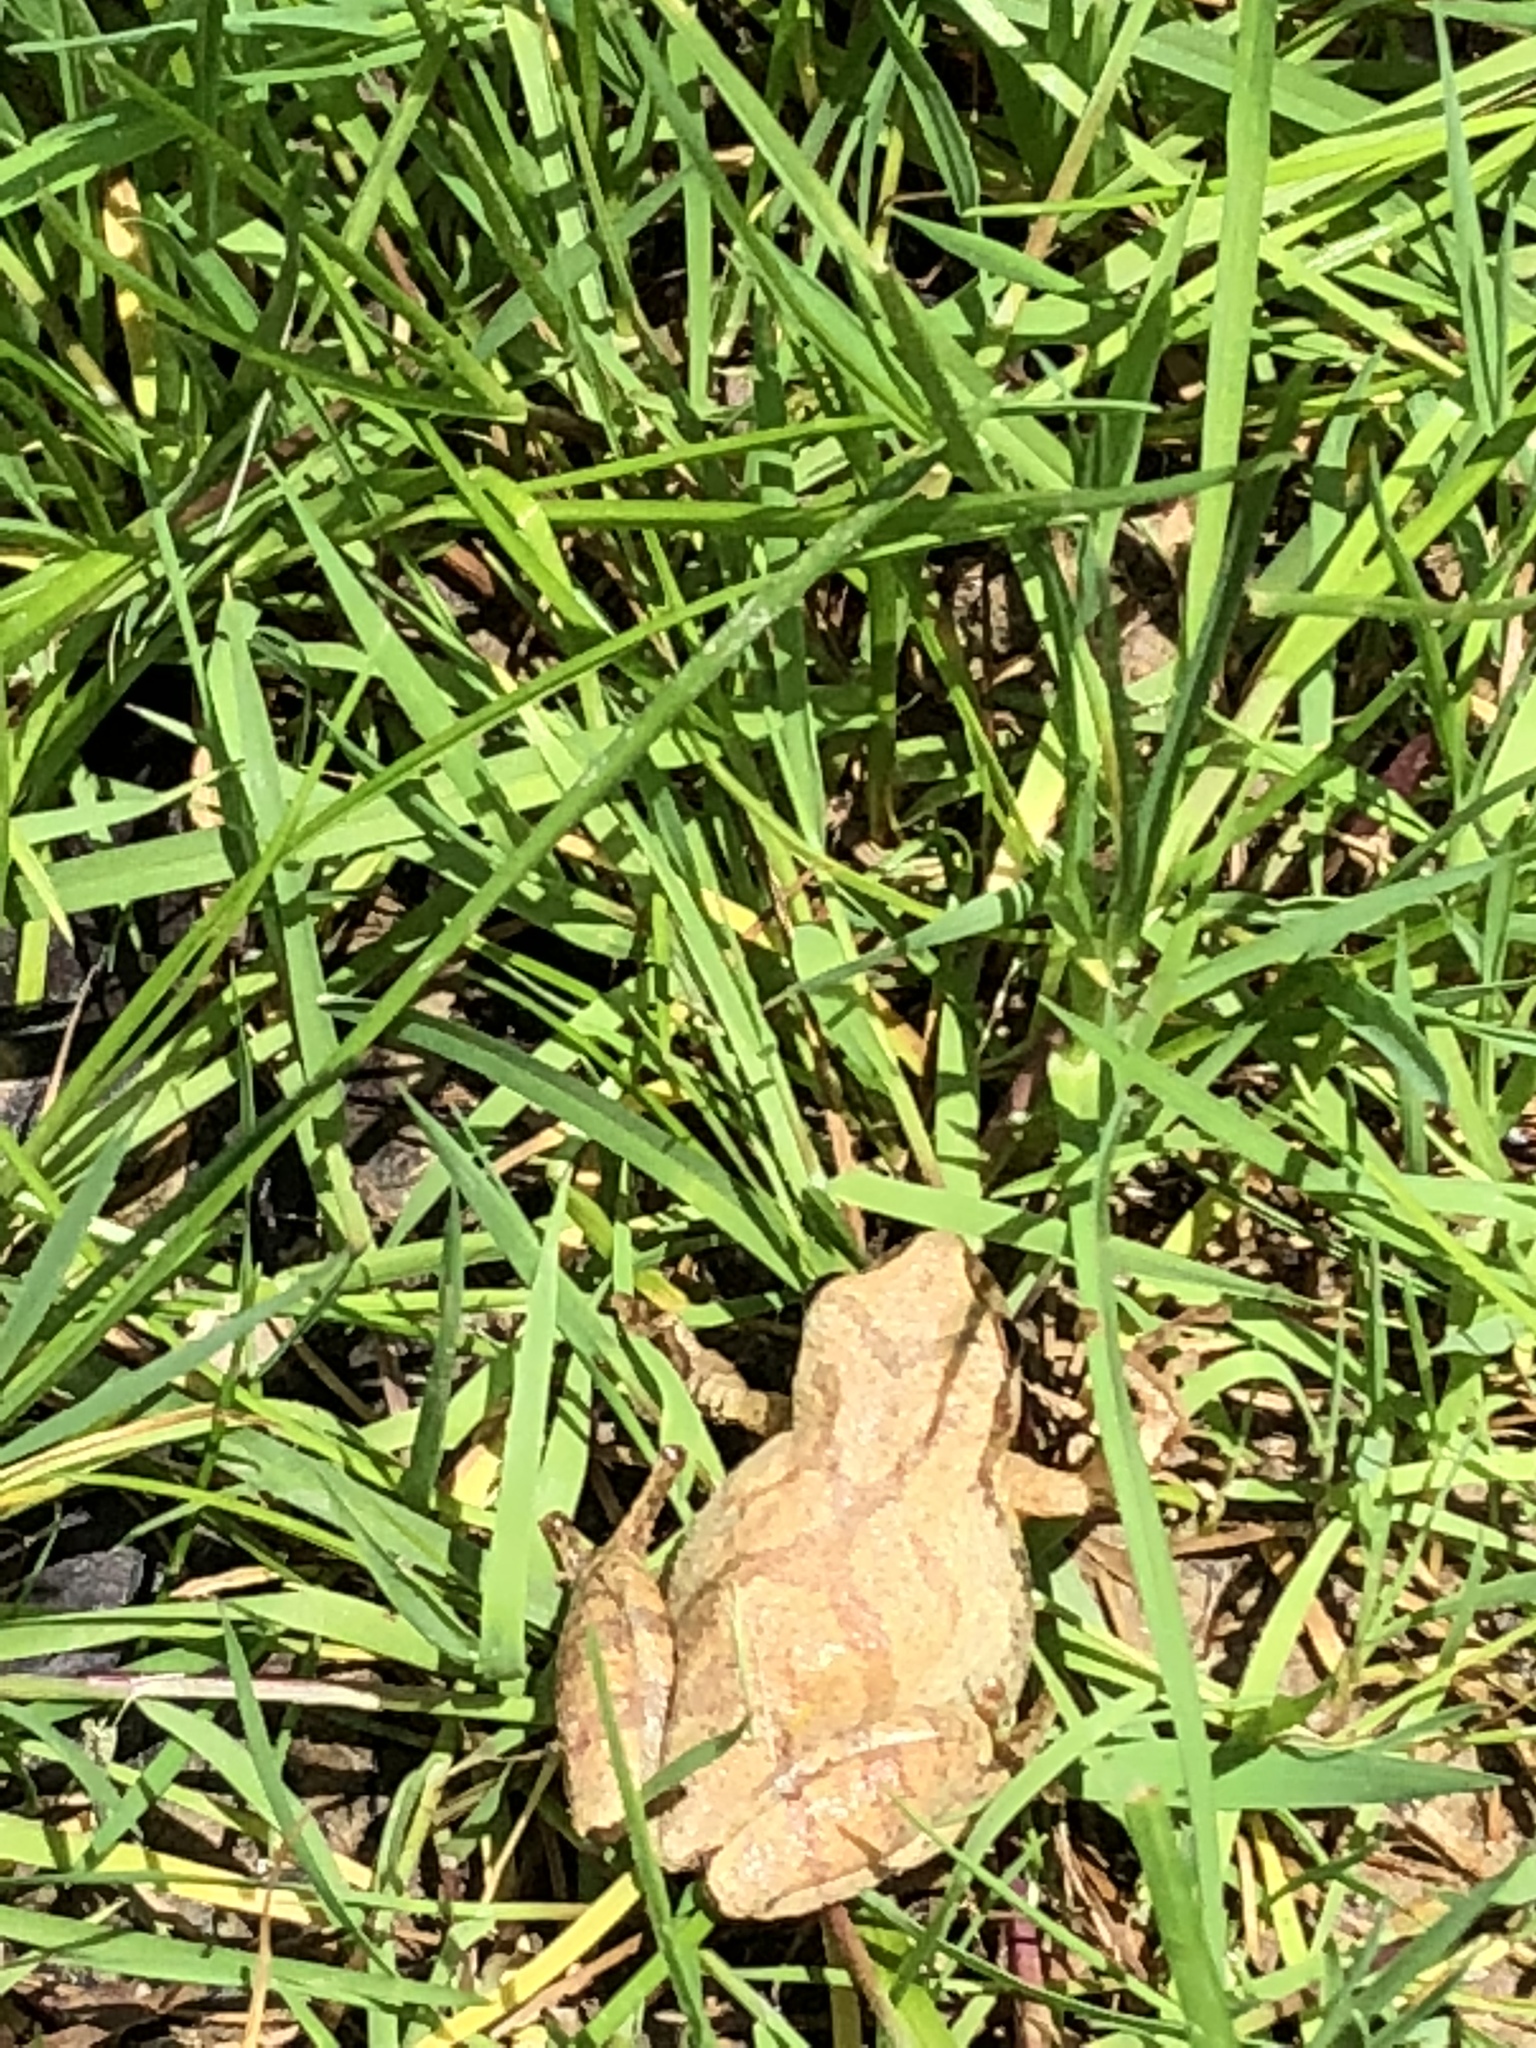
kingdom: Animalia
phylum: Chordata
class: Amphibia
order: Anura
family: Hylidae
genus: Pseudacris
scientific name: Pseudacris crucifer
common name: Spring peeper
